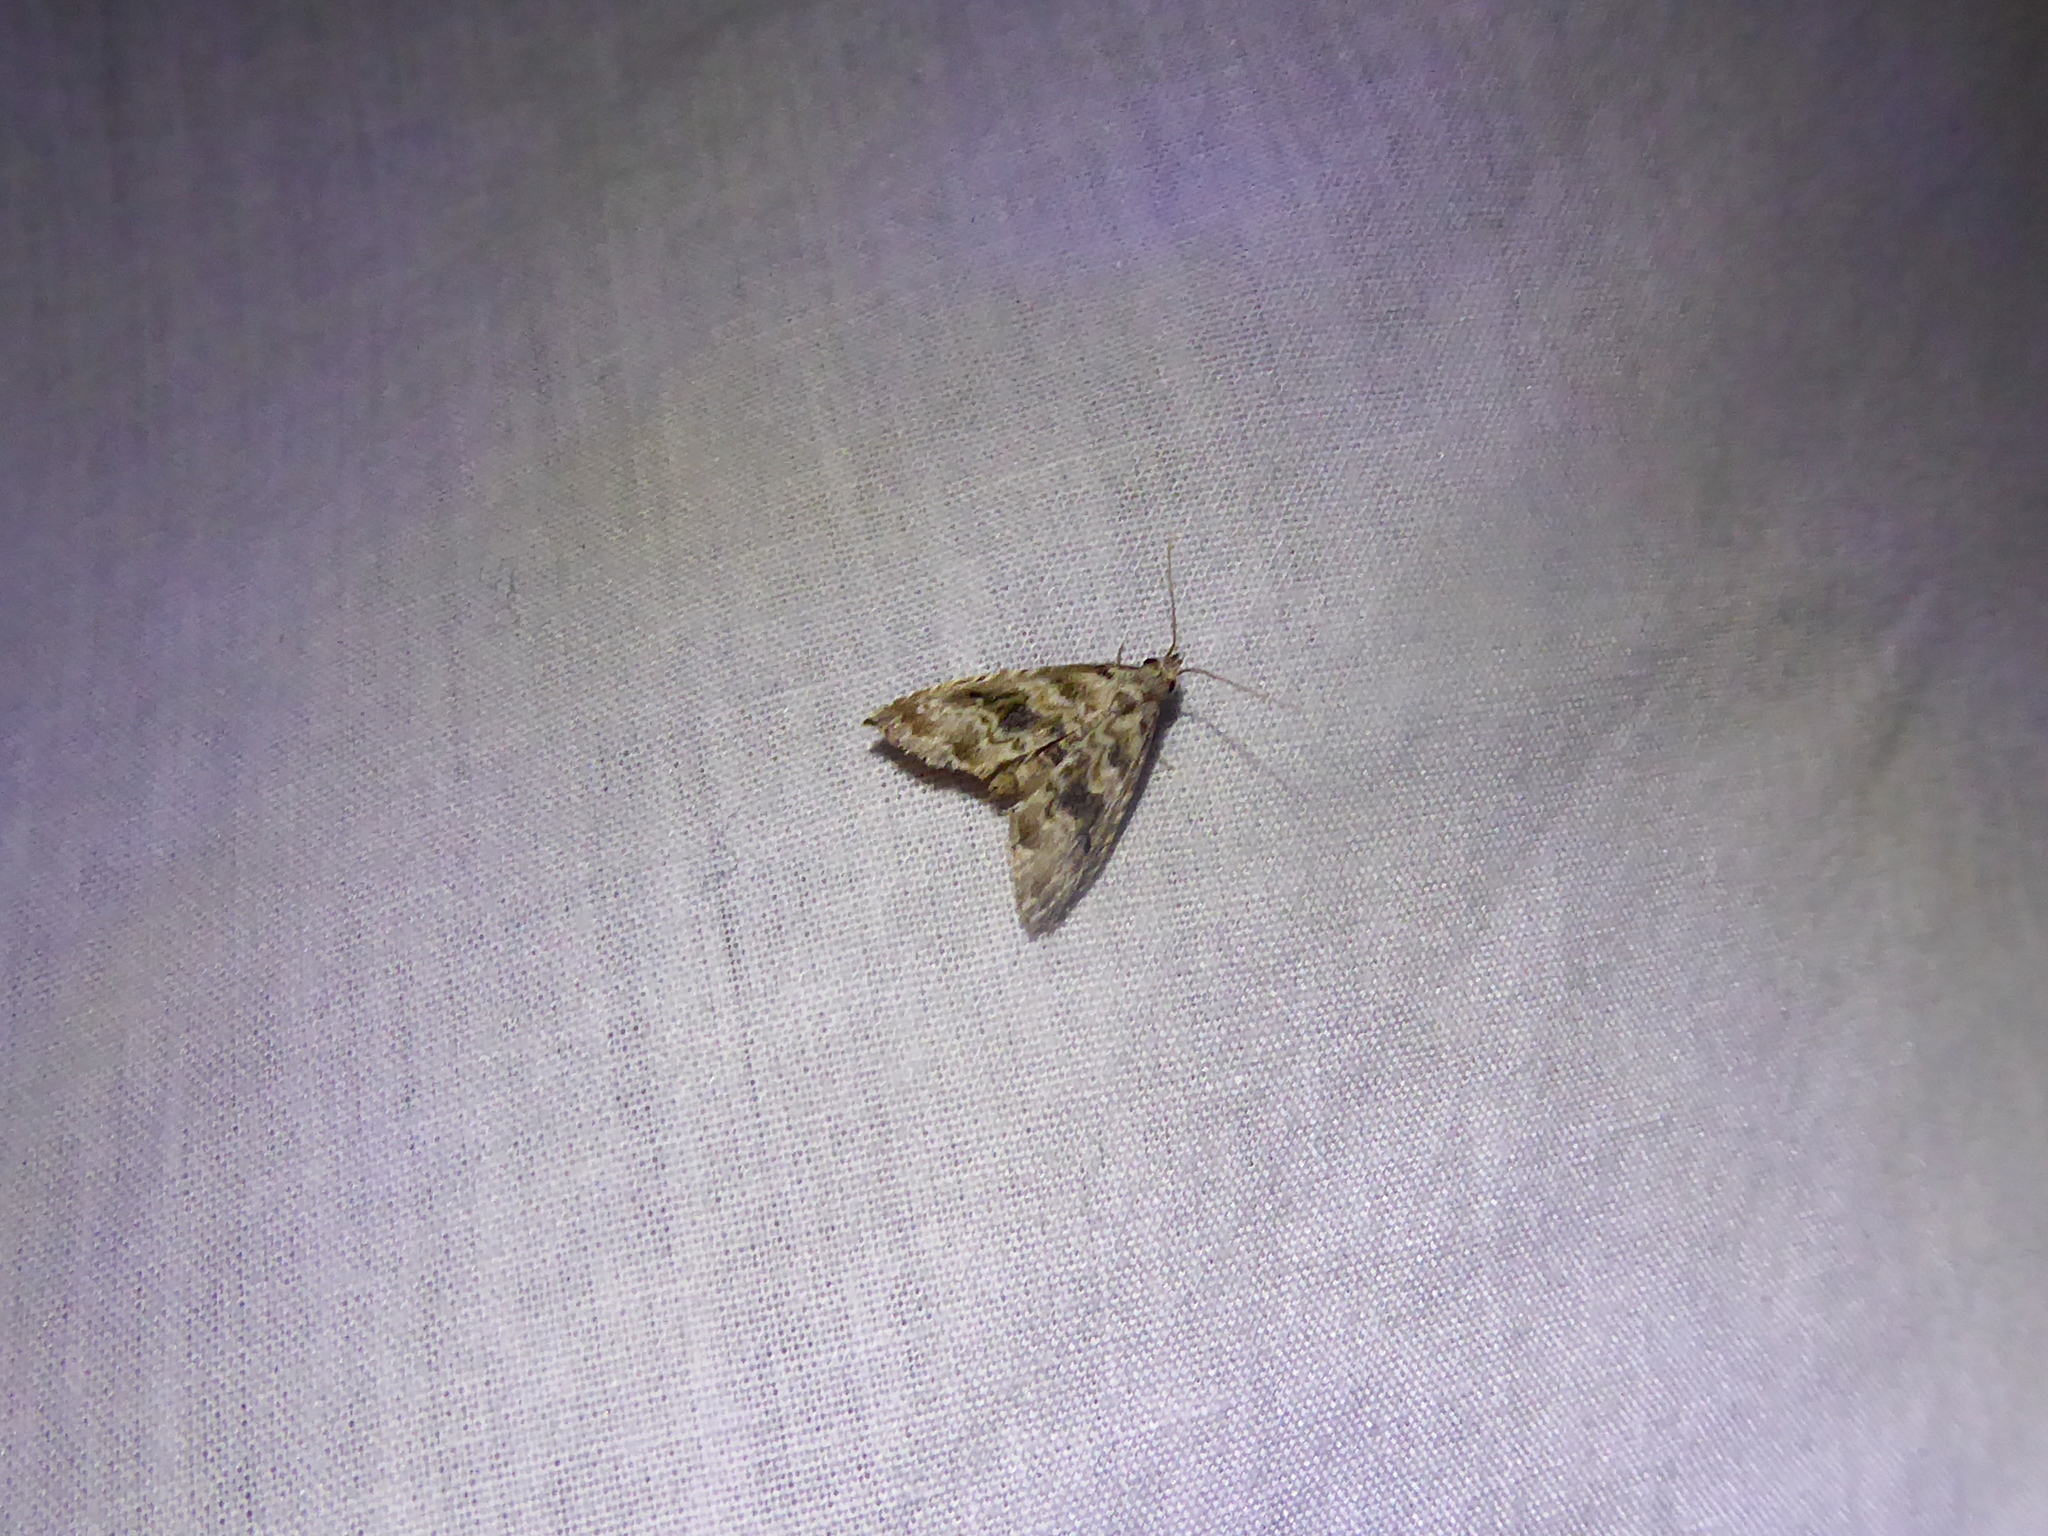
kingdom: Animalia
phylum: Arthropoda
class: Insecta
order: Lepidoptera
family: Noctuidae
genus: Phobolosia
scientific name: Phobolosia anfracta
